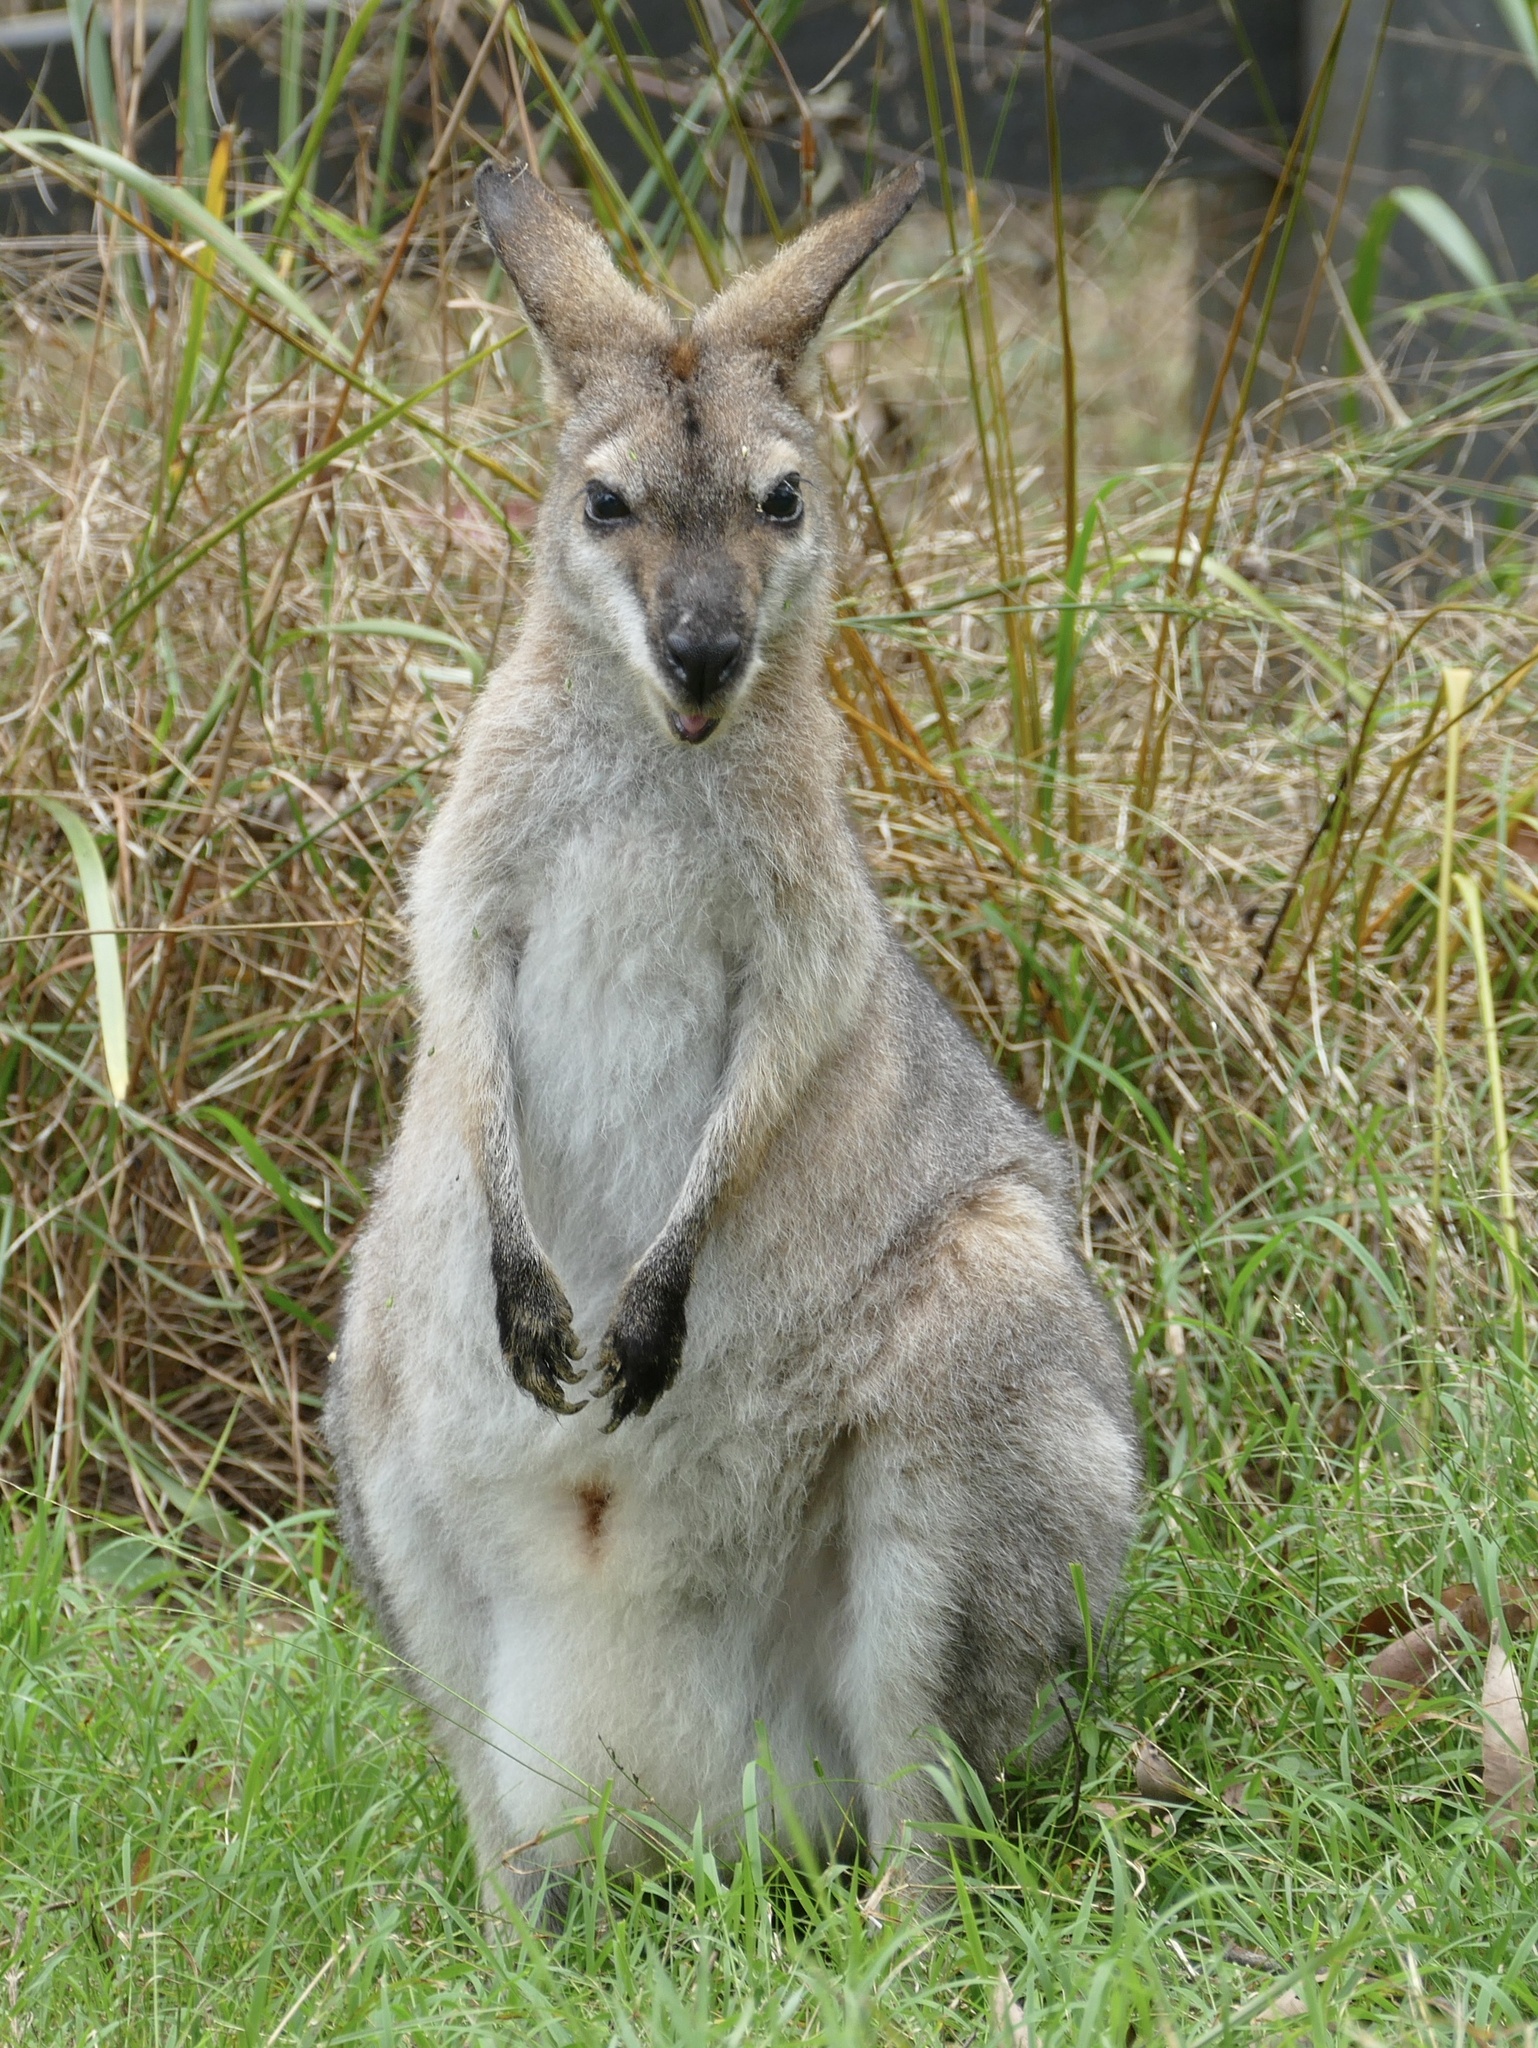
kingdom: Animalia
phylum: Chordata
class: Mammalia
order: Diprotodontia
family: Macropodidae
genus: Notamacropus
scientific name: Notamacropus rufogriseus
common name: Red-necked wallaby
